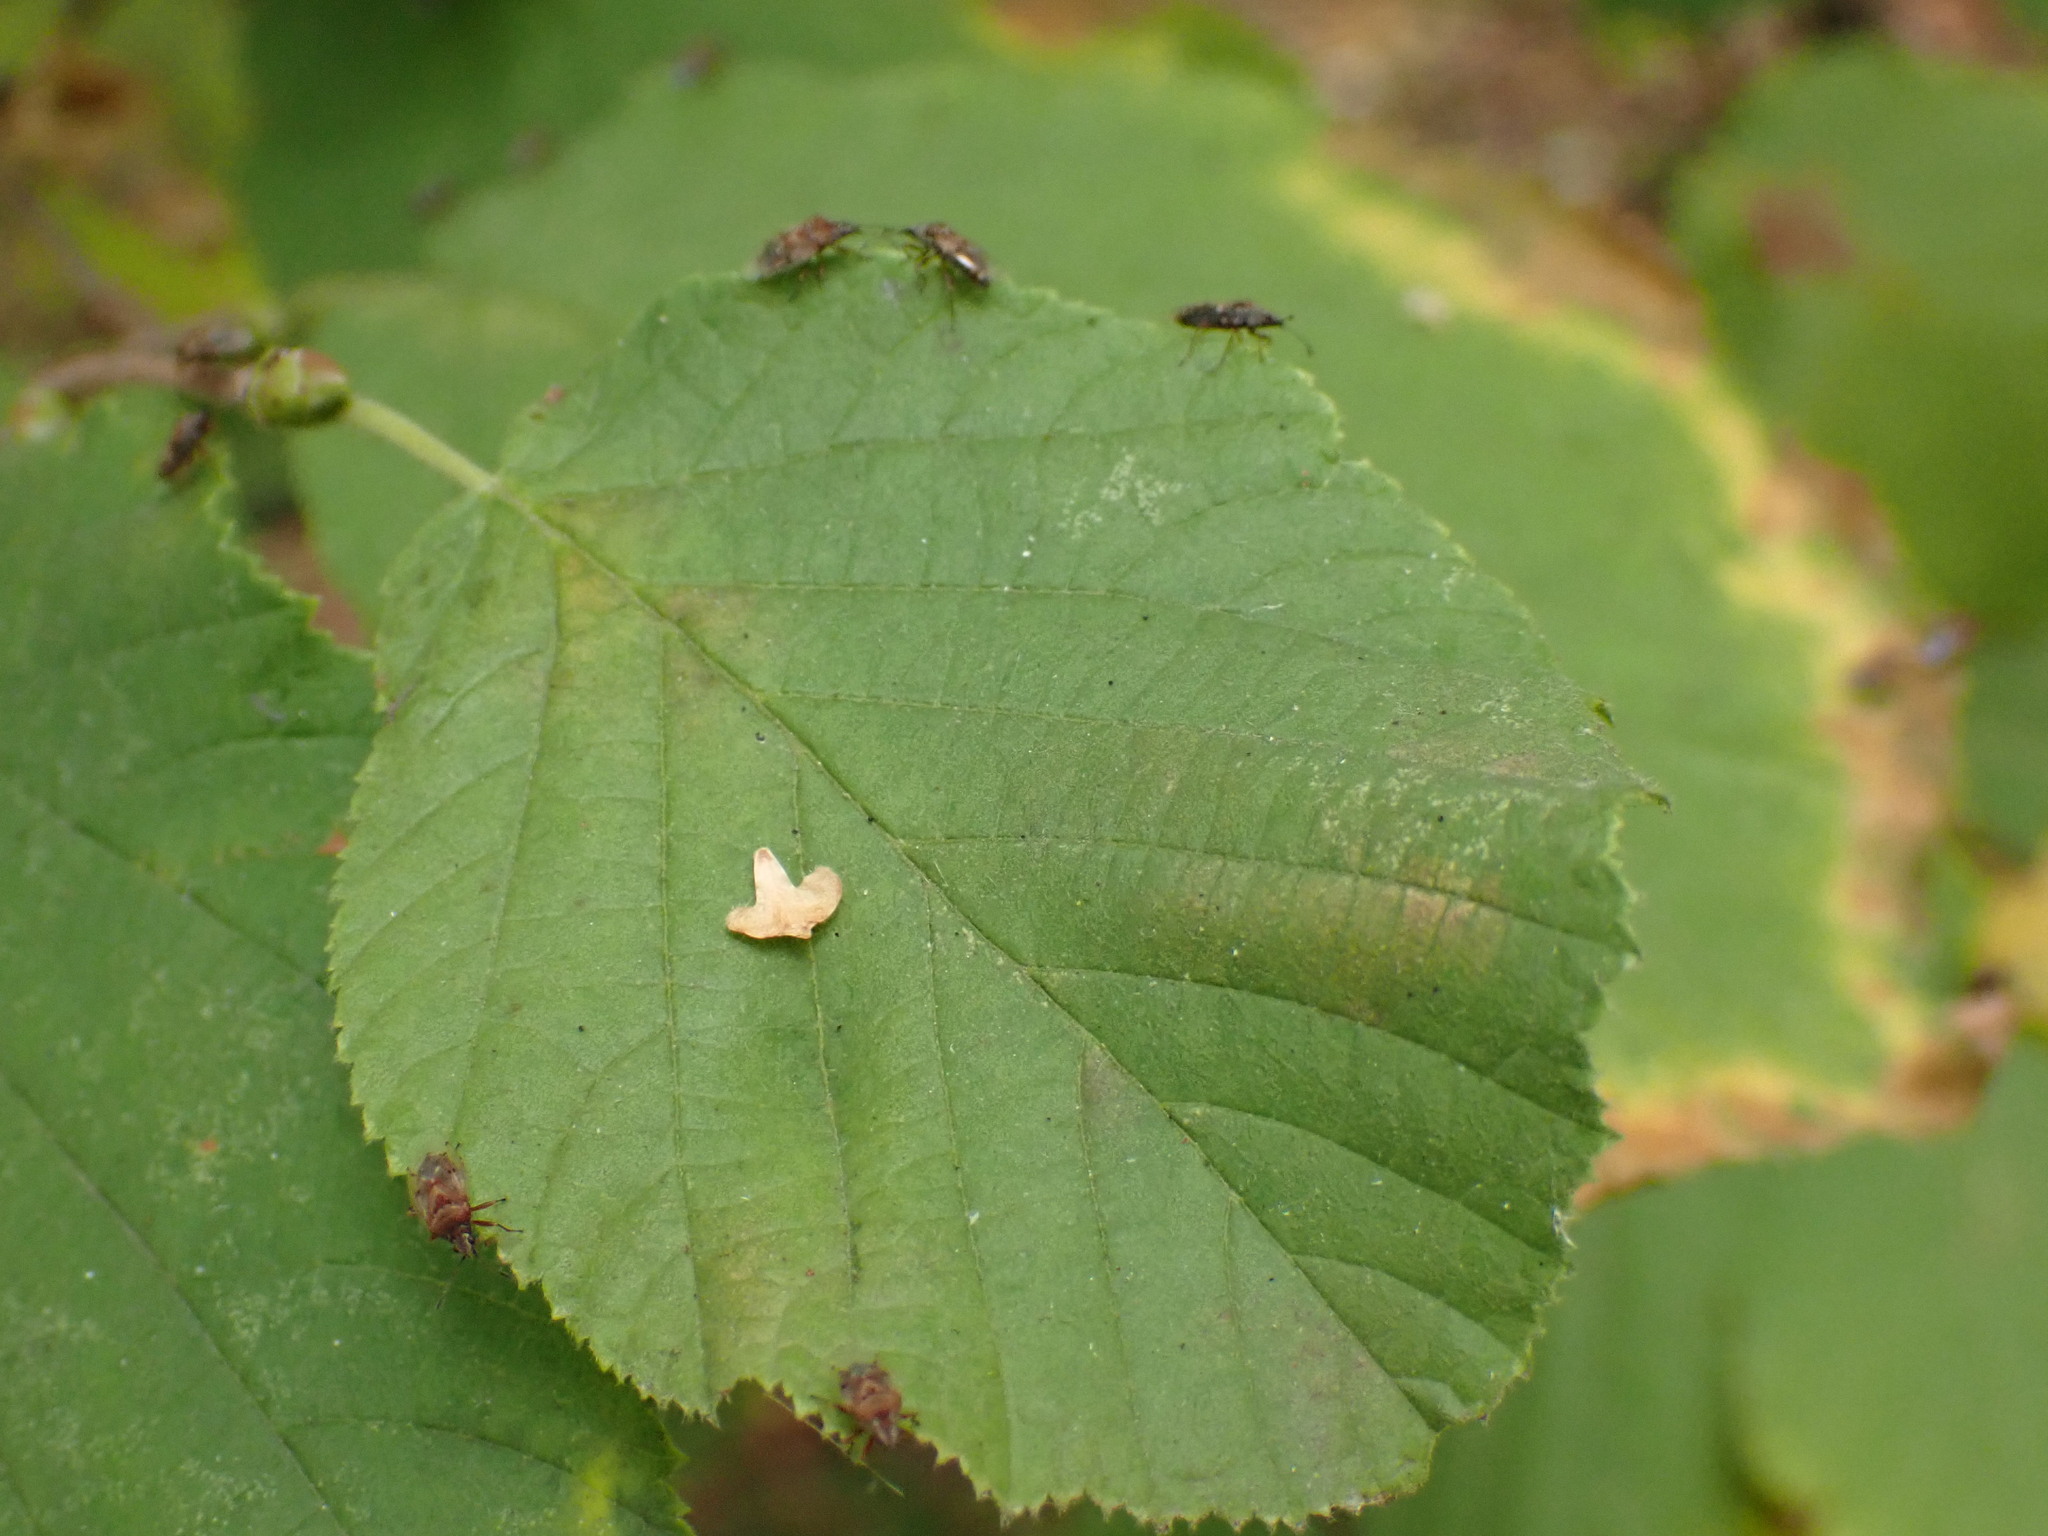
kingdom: Animalia
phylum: Arthropoda
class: Insecta
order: Hemiptera
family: Lygaeidae
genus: Kleidocerys
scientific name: Kleidocerys resedae
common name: Birch catkin bug
